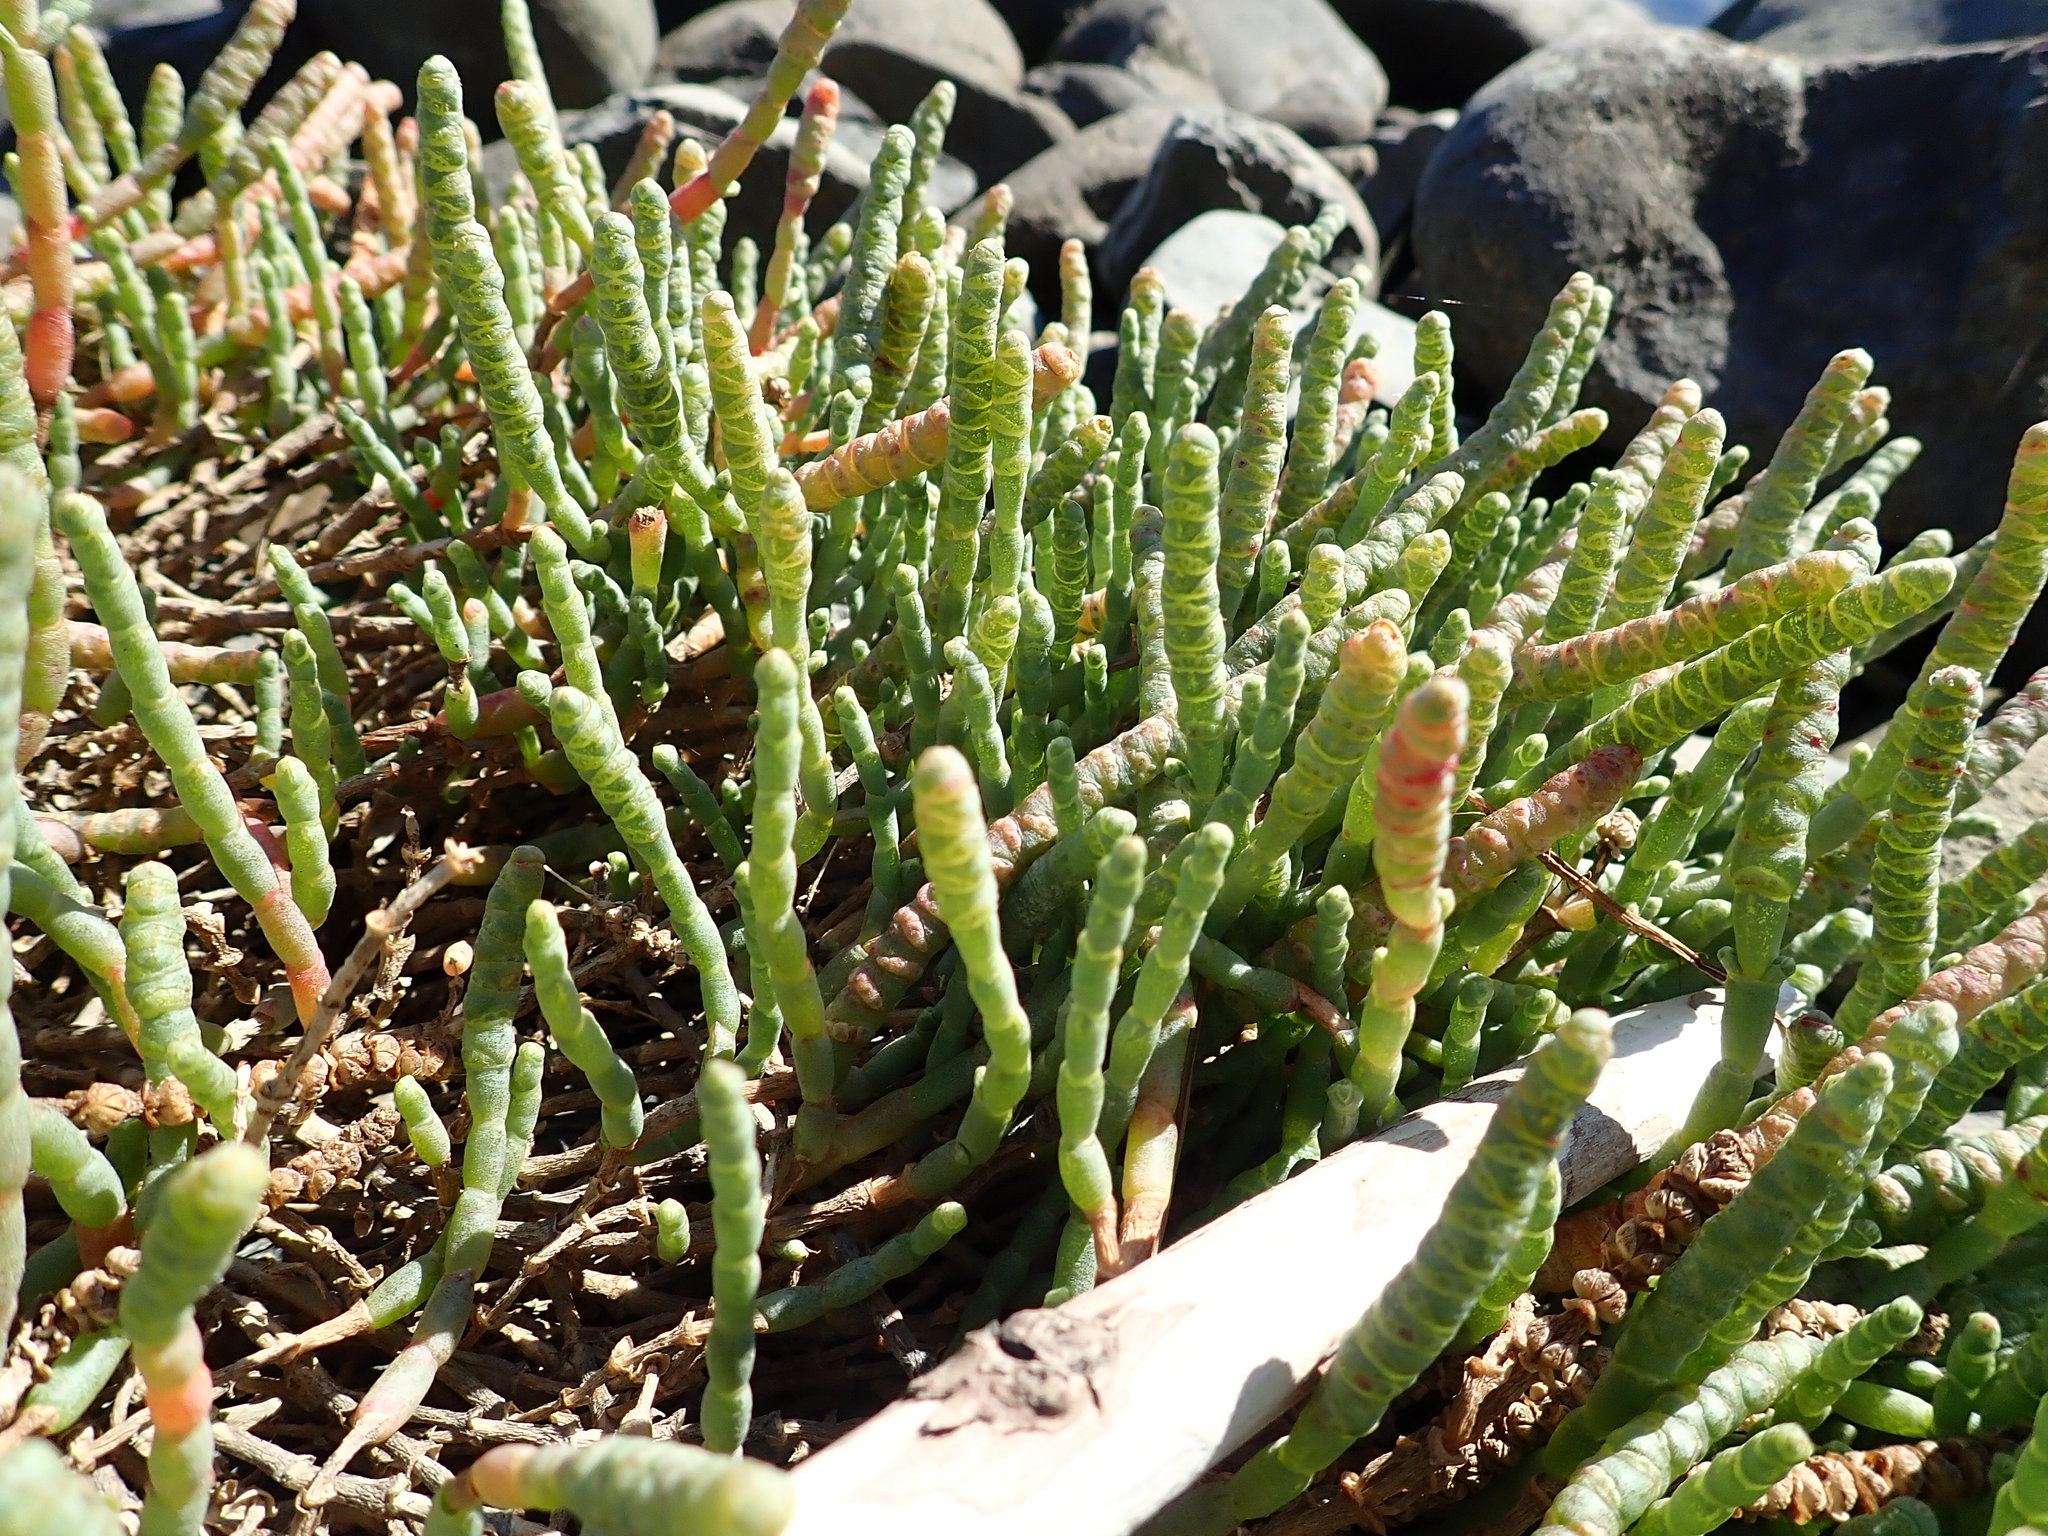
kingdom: Plantae
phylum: Tracheophyta
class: Magnoliopsida
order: Caryophyllales
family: Amaranthaceae
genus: Salicornia
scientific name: Salicornia quinqueflora
